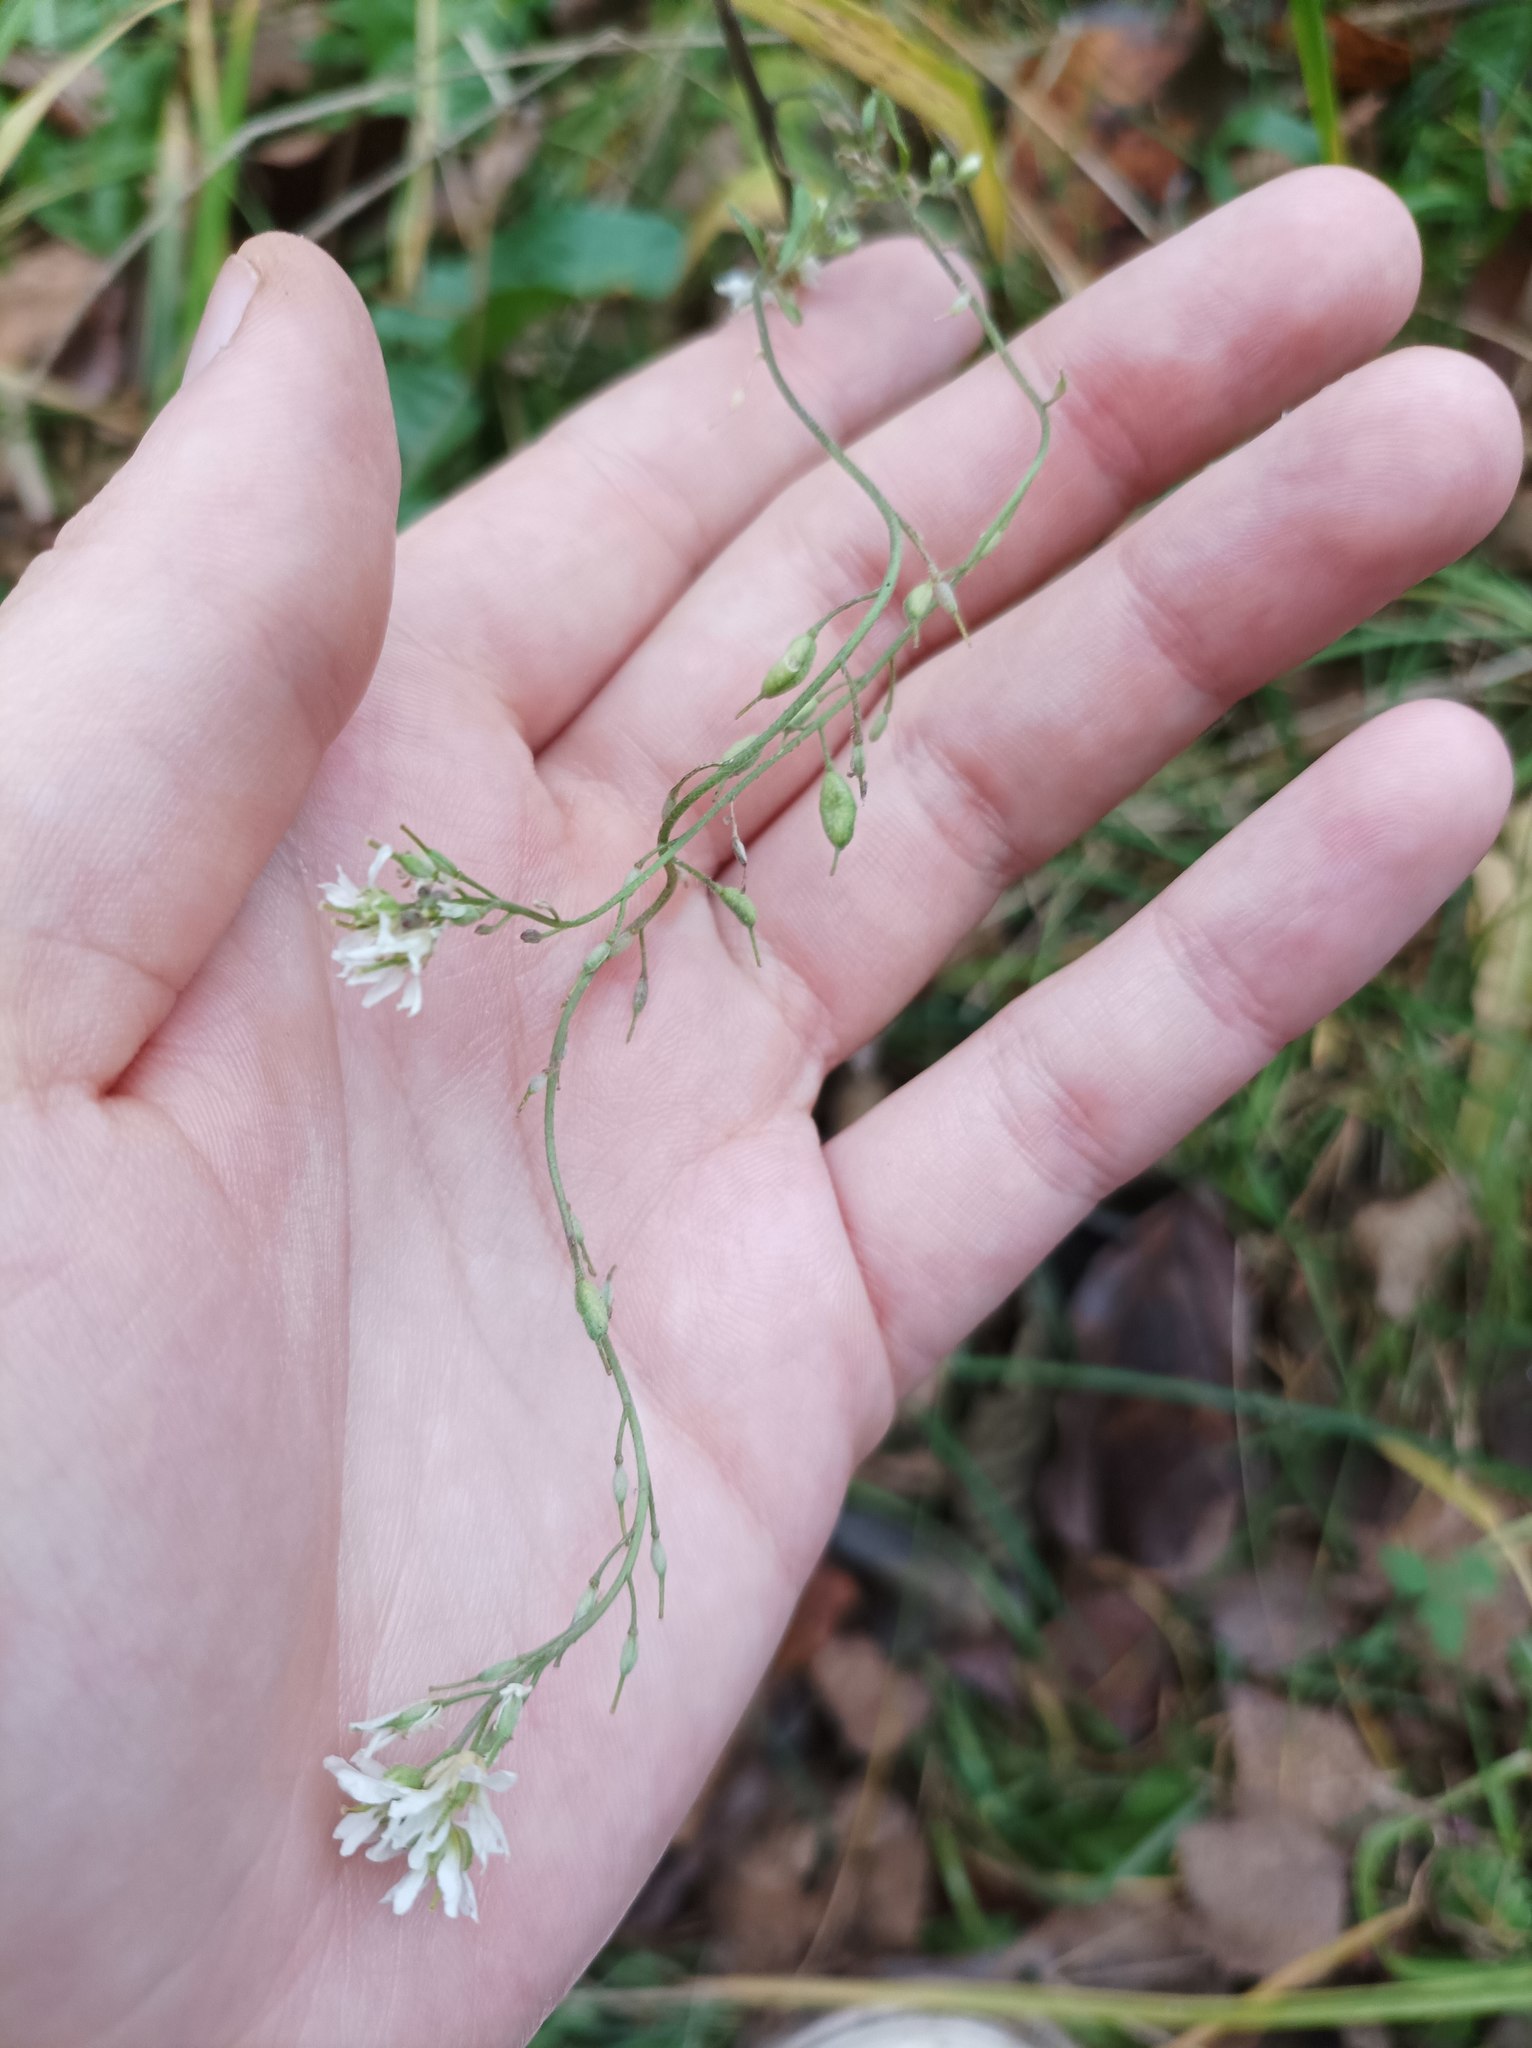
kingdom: Plantae
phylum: Tracheophyta
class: Magnoliopsida
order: Brassicales
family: Brassicaceae
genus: Berteroa
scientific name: Berteroa incana
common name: Hoary alison
